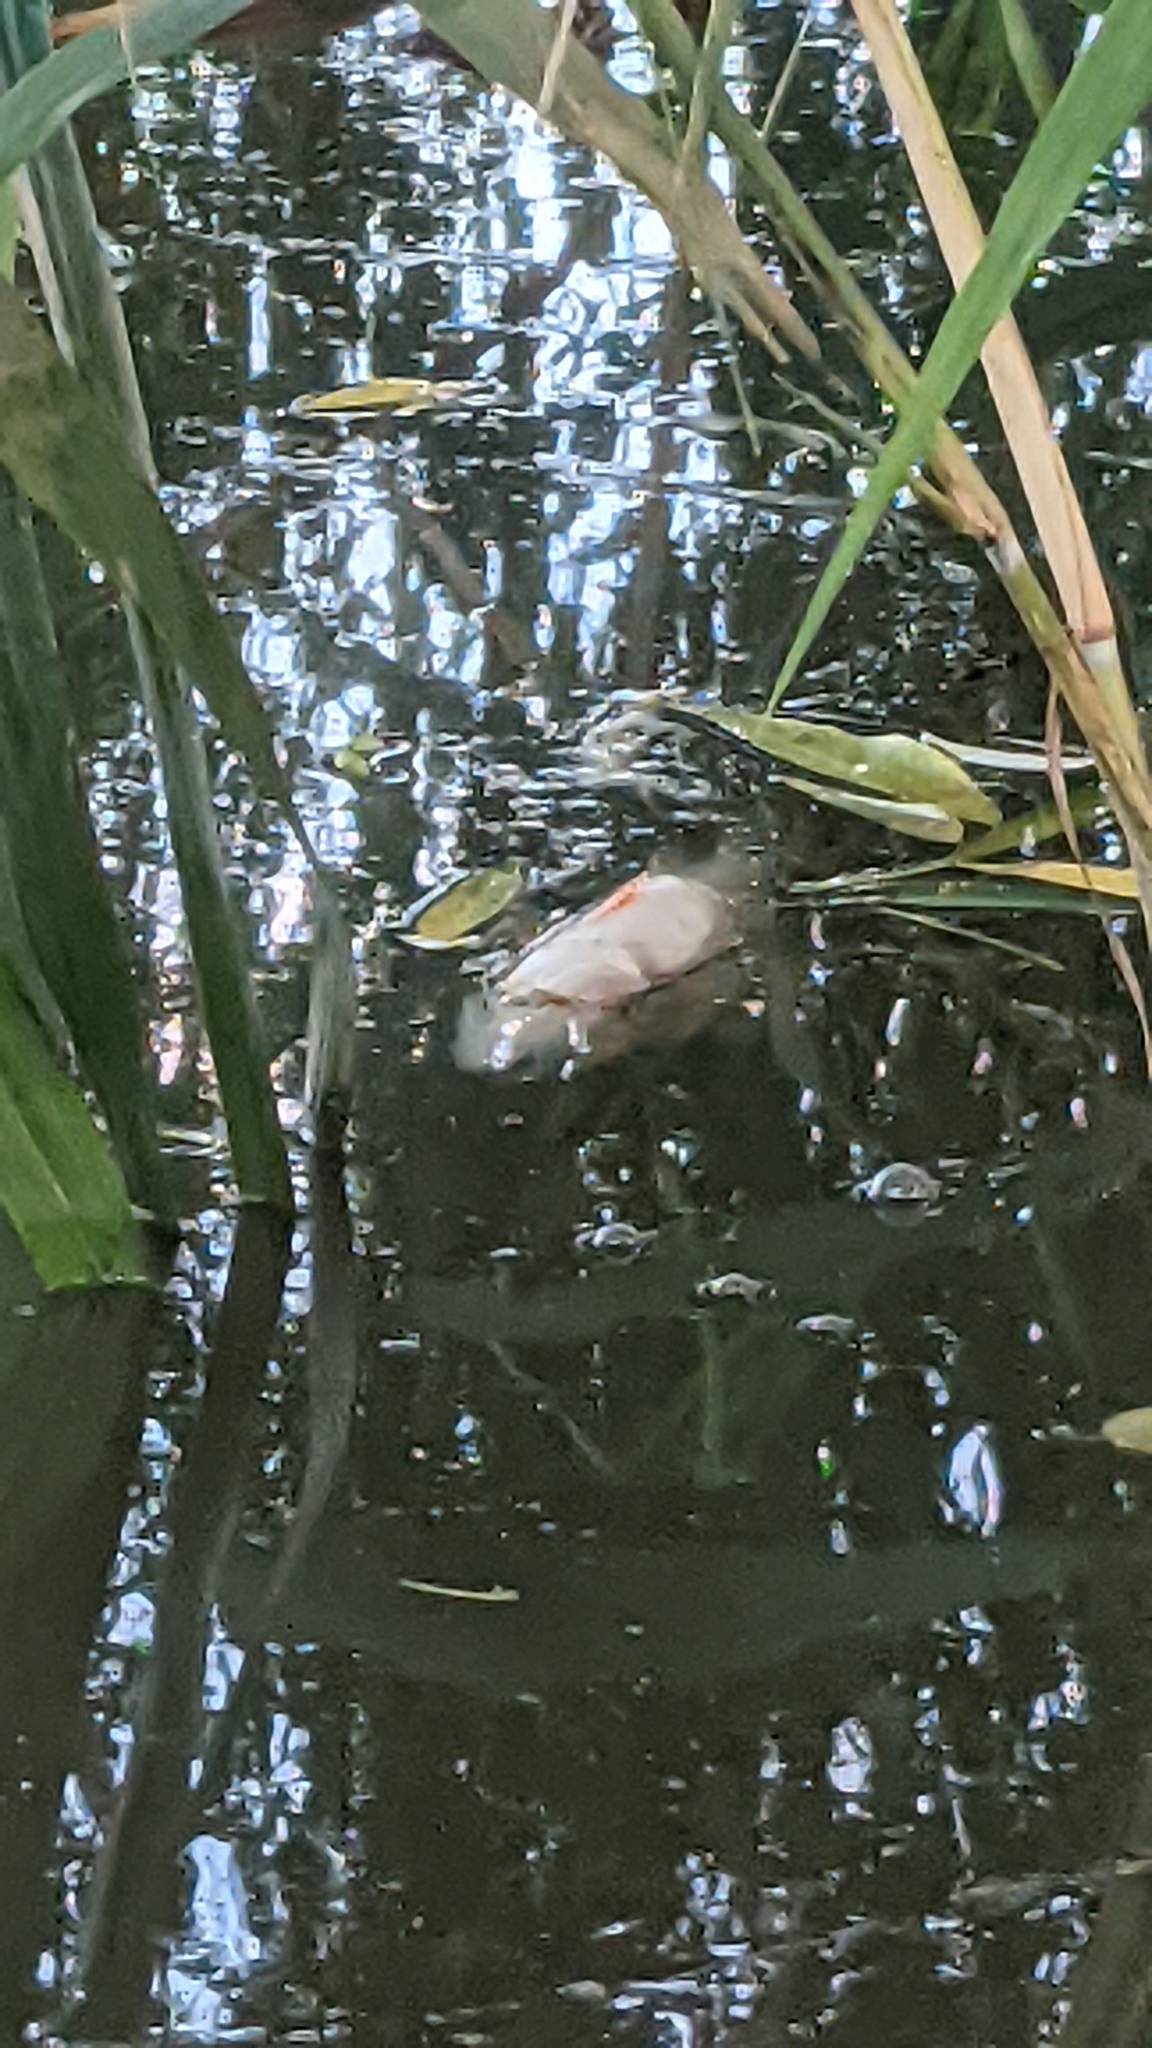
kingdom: Animalia
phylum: Chordata
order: Perciformes
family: Percidae
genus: Perca
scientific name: Perca fluviatilis
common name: Perch
